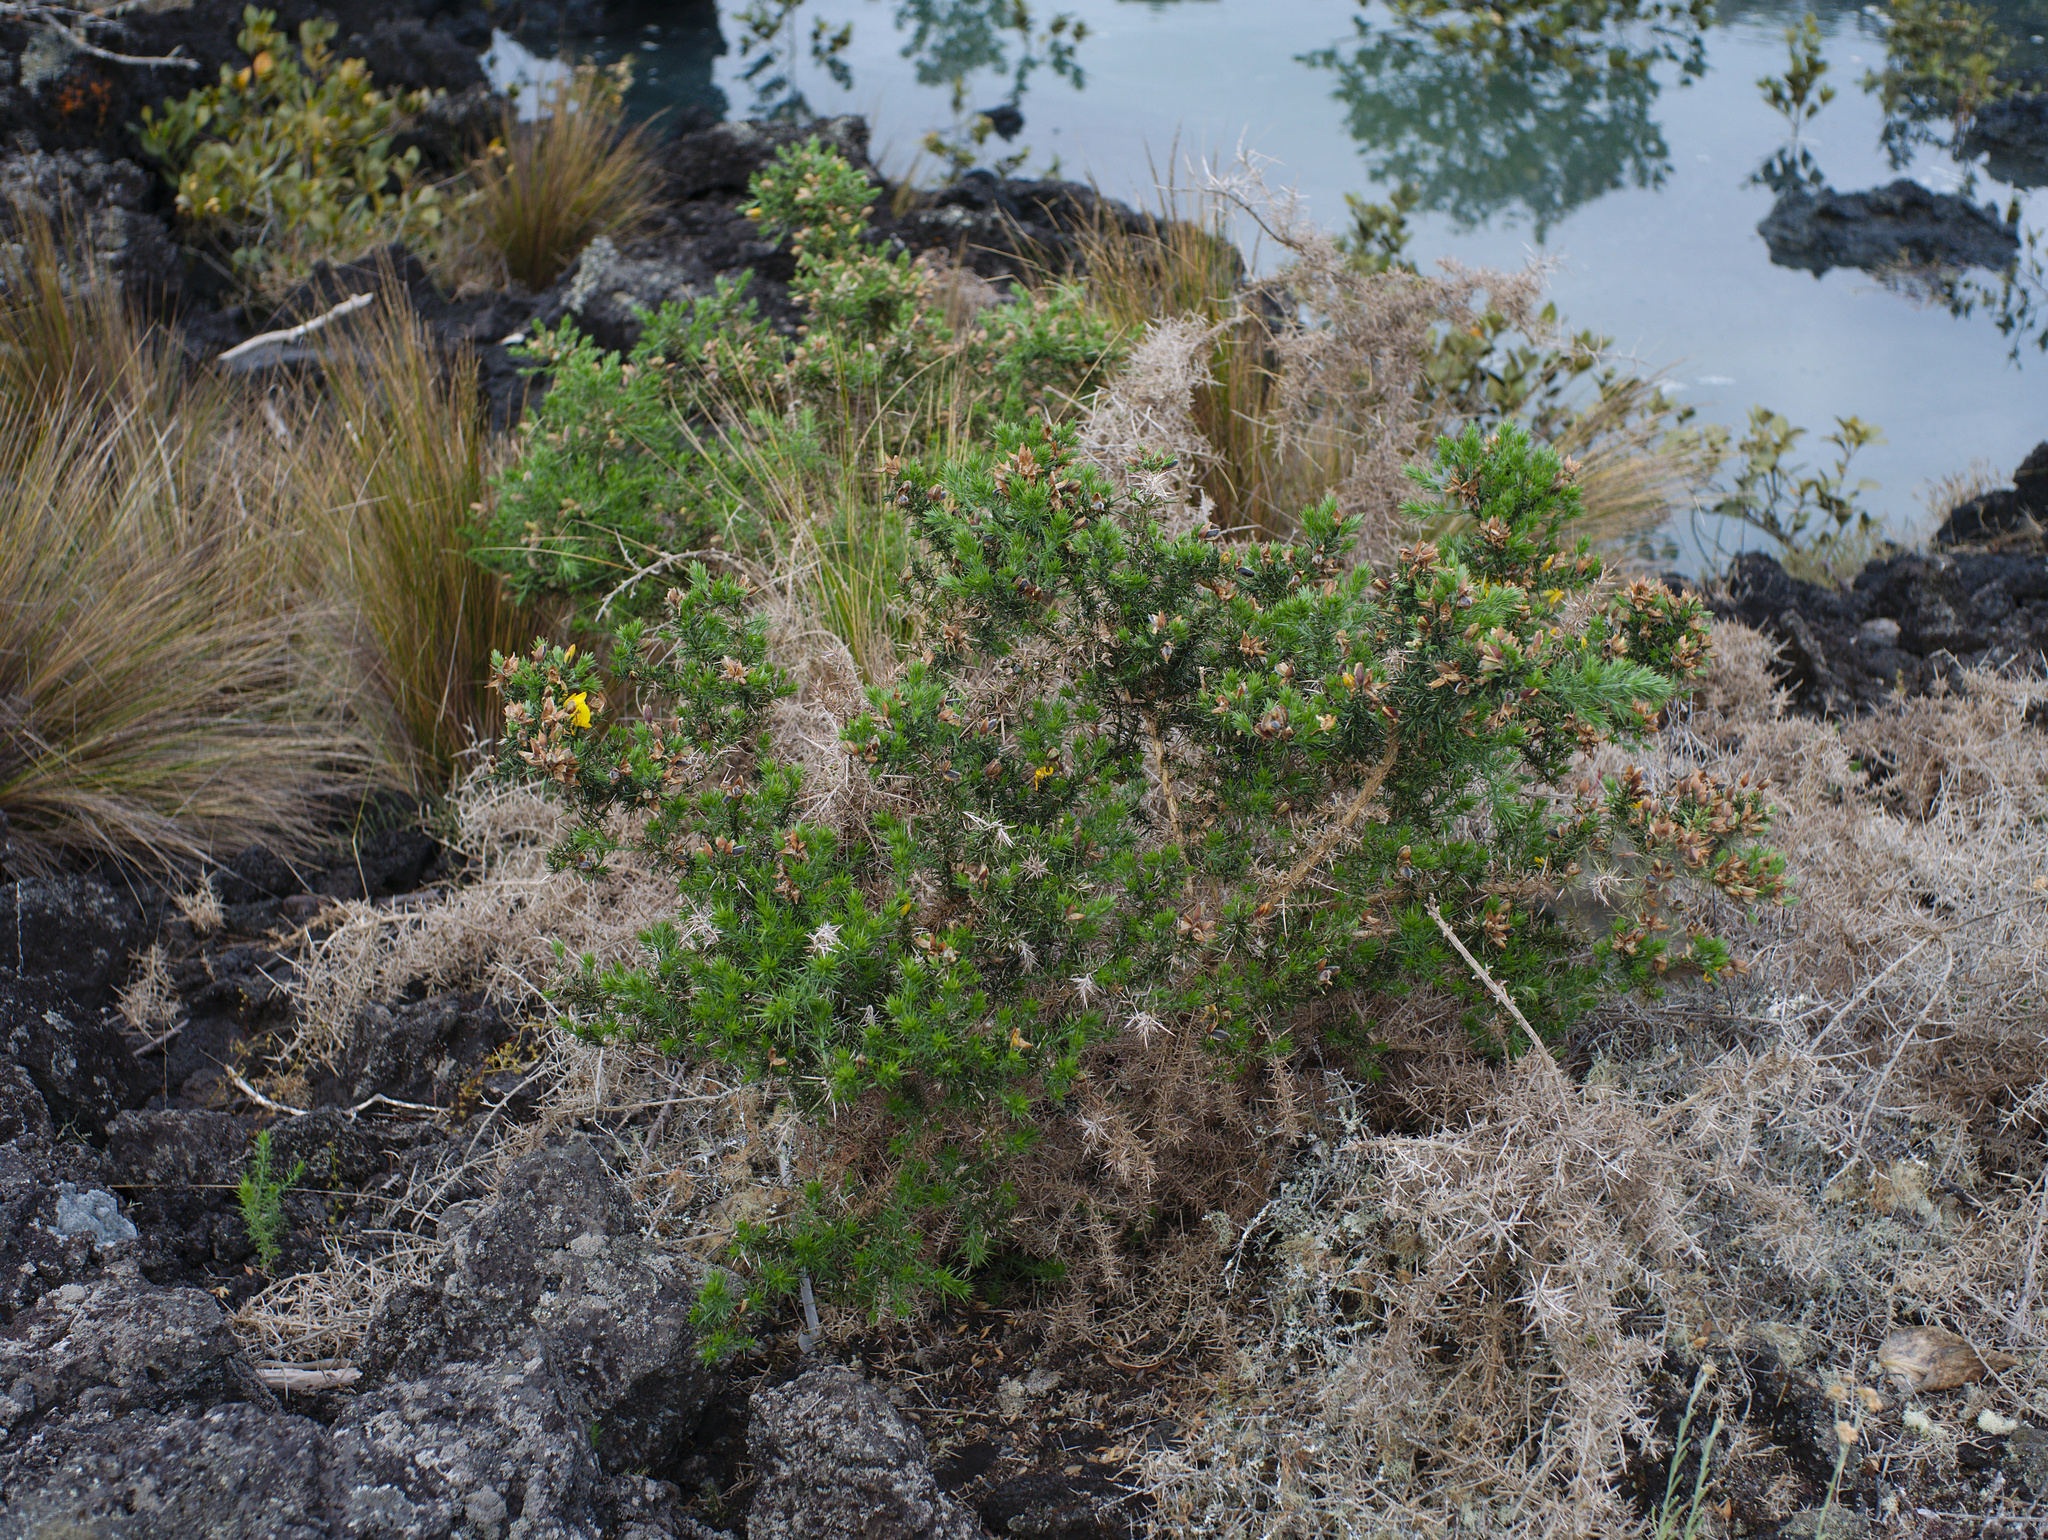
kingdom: Plantae
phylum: Tracheophyta
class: Magnoliopsida
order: Fabales
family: Fabaceae
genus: Ulex
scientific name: Ulex europaeus
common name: Common gorse
